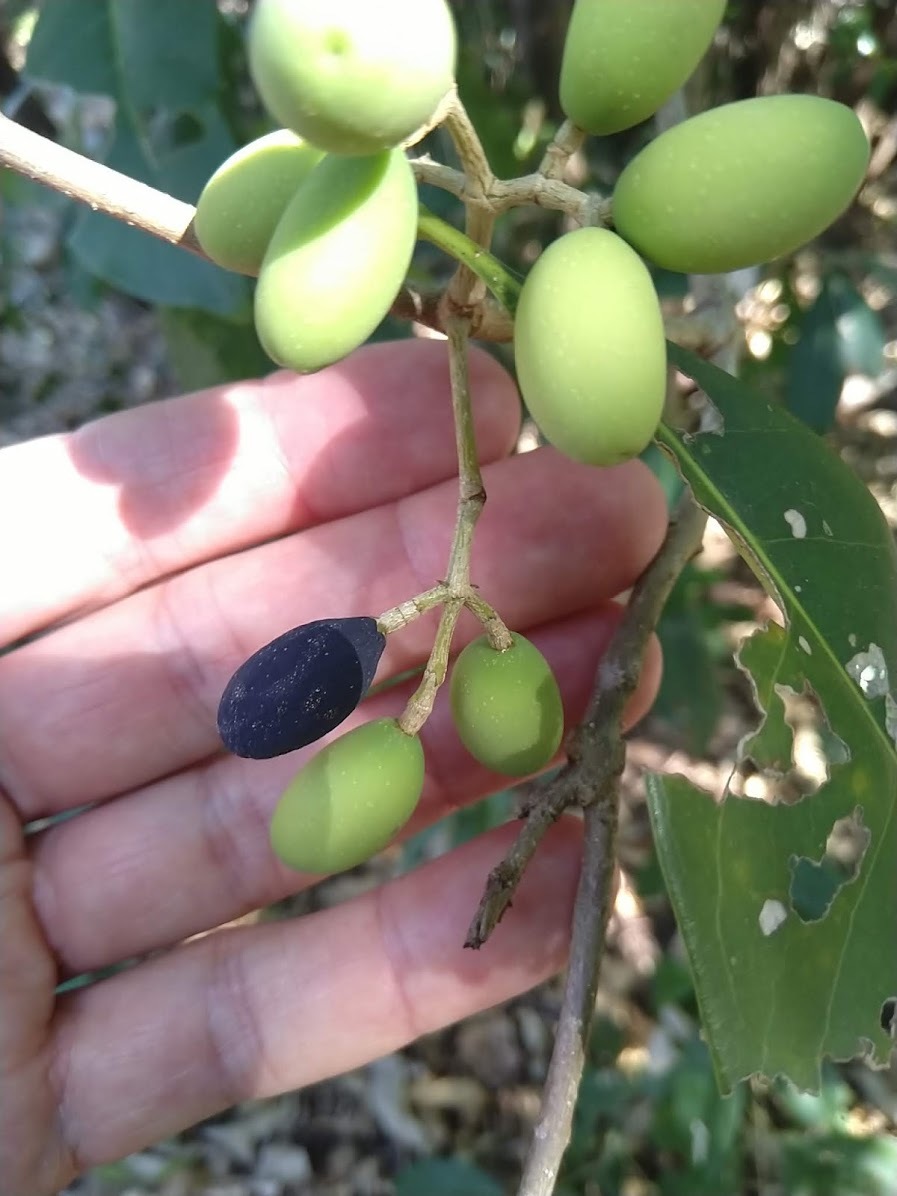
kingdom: Plantae
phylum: Tracheophyta
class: Magnoliopsida
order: Lamiales
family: Oleaceae
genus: Chionanthus
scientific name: Chionanthus ramiflorus
